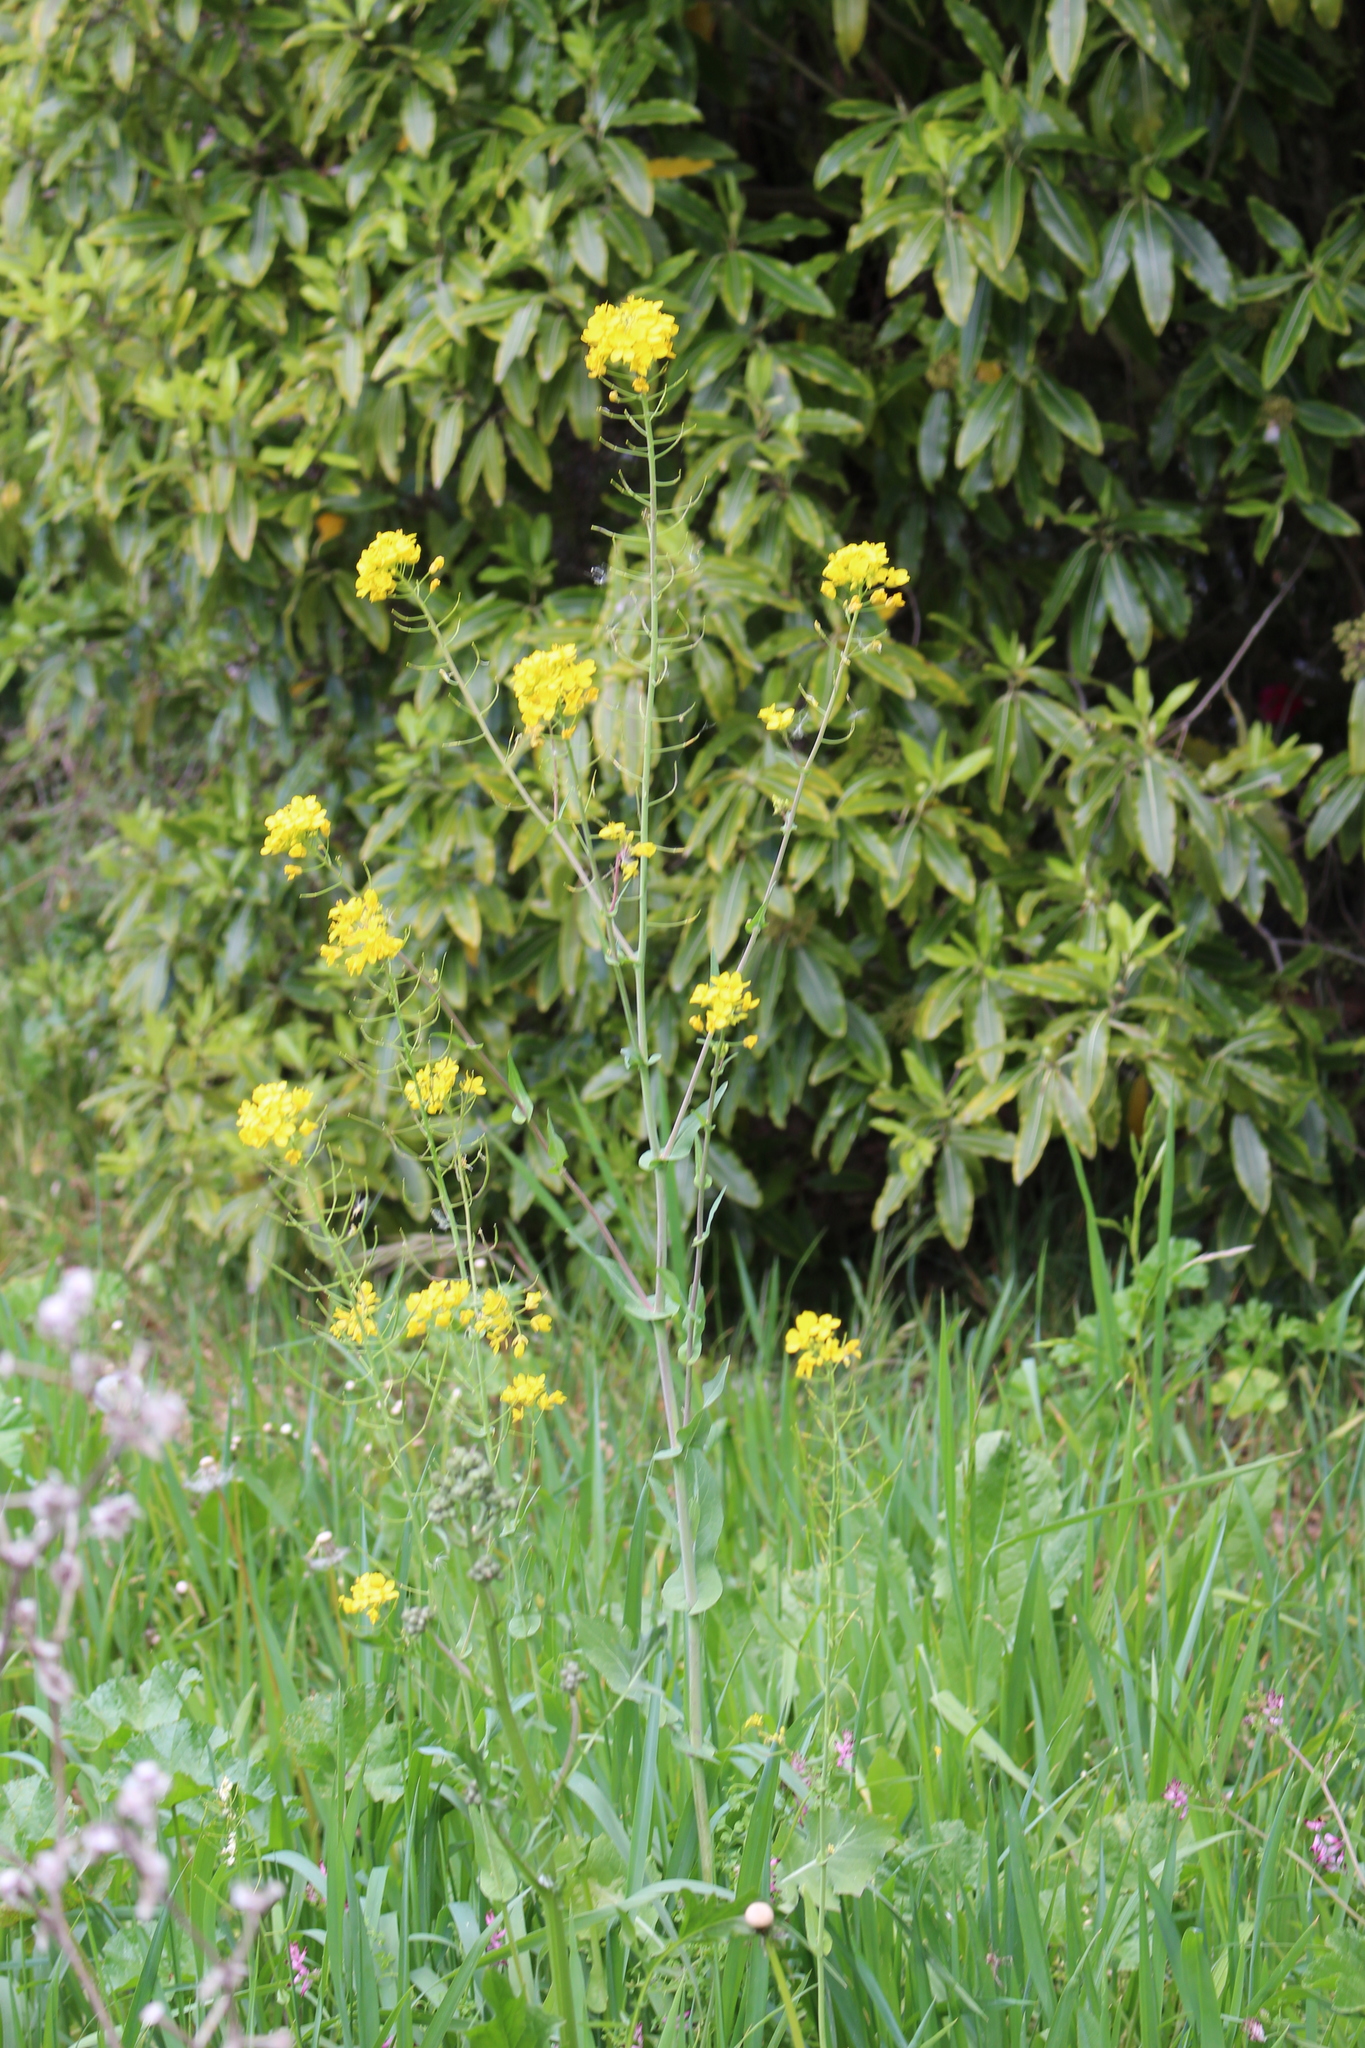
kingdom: Plantae
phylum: Tracheophyta
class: Magnoliopsida
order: Brassicales
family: Brassicaceae
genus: Brassica
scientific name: Brassica rapa
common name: Field mustard
